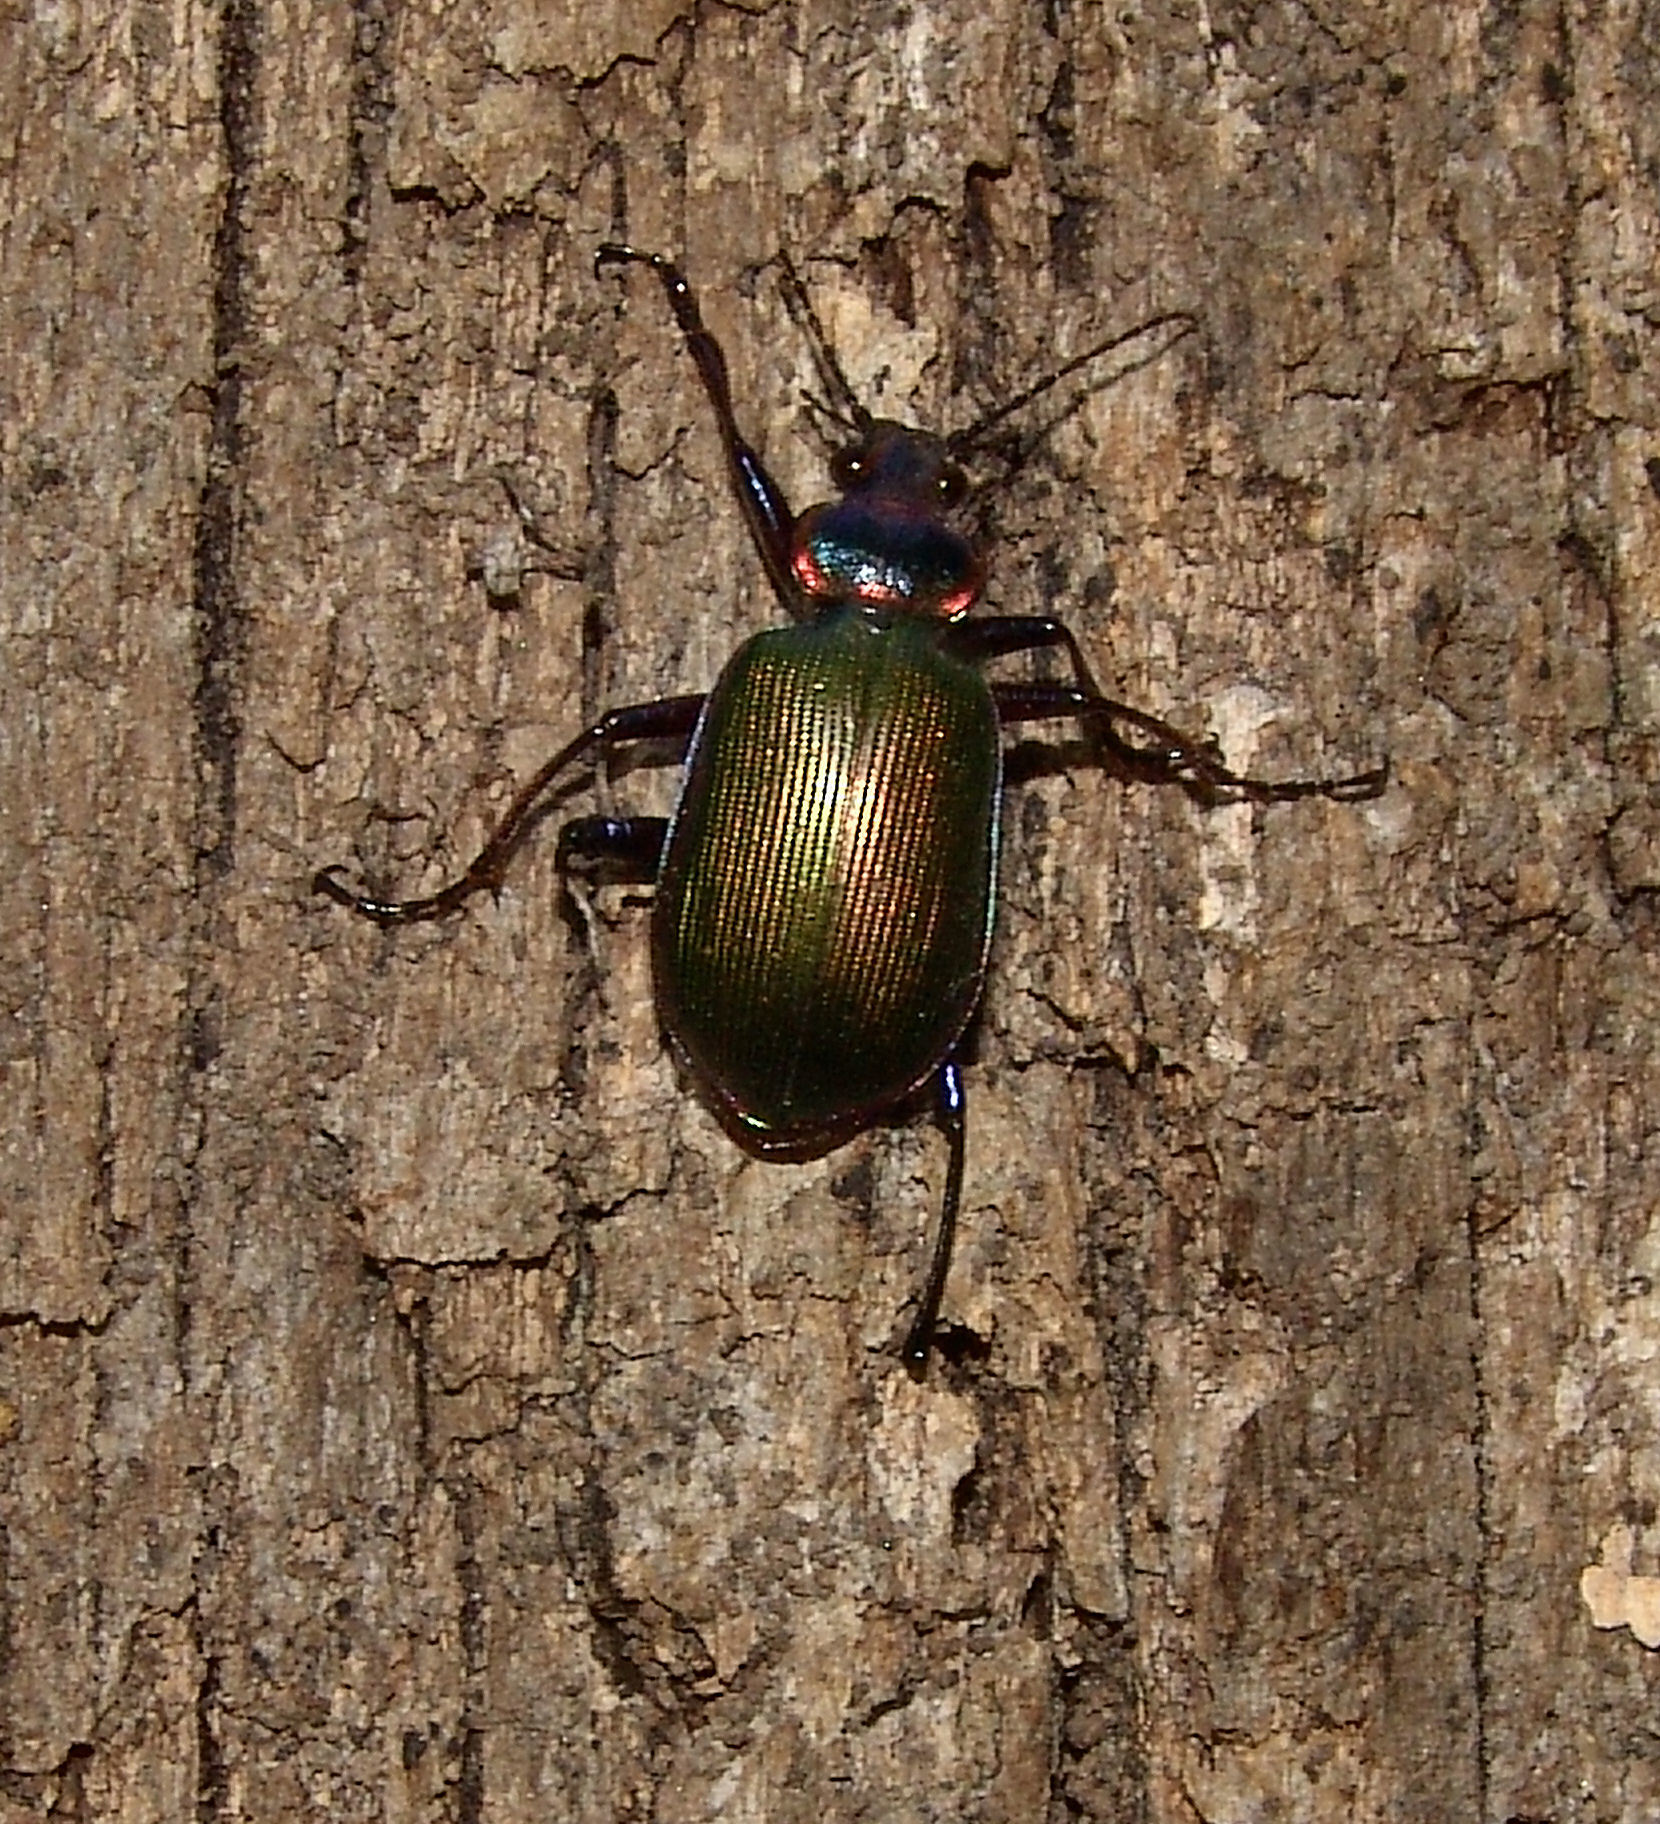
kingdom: Animalia
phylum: Arthropoda
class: Insecta
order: Coleoptera
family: Carabidae
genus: Calosoma
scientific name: Calosoma scrutator
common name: Fiery searcher beetle
